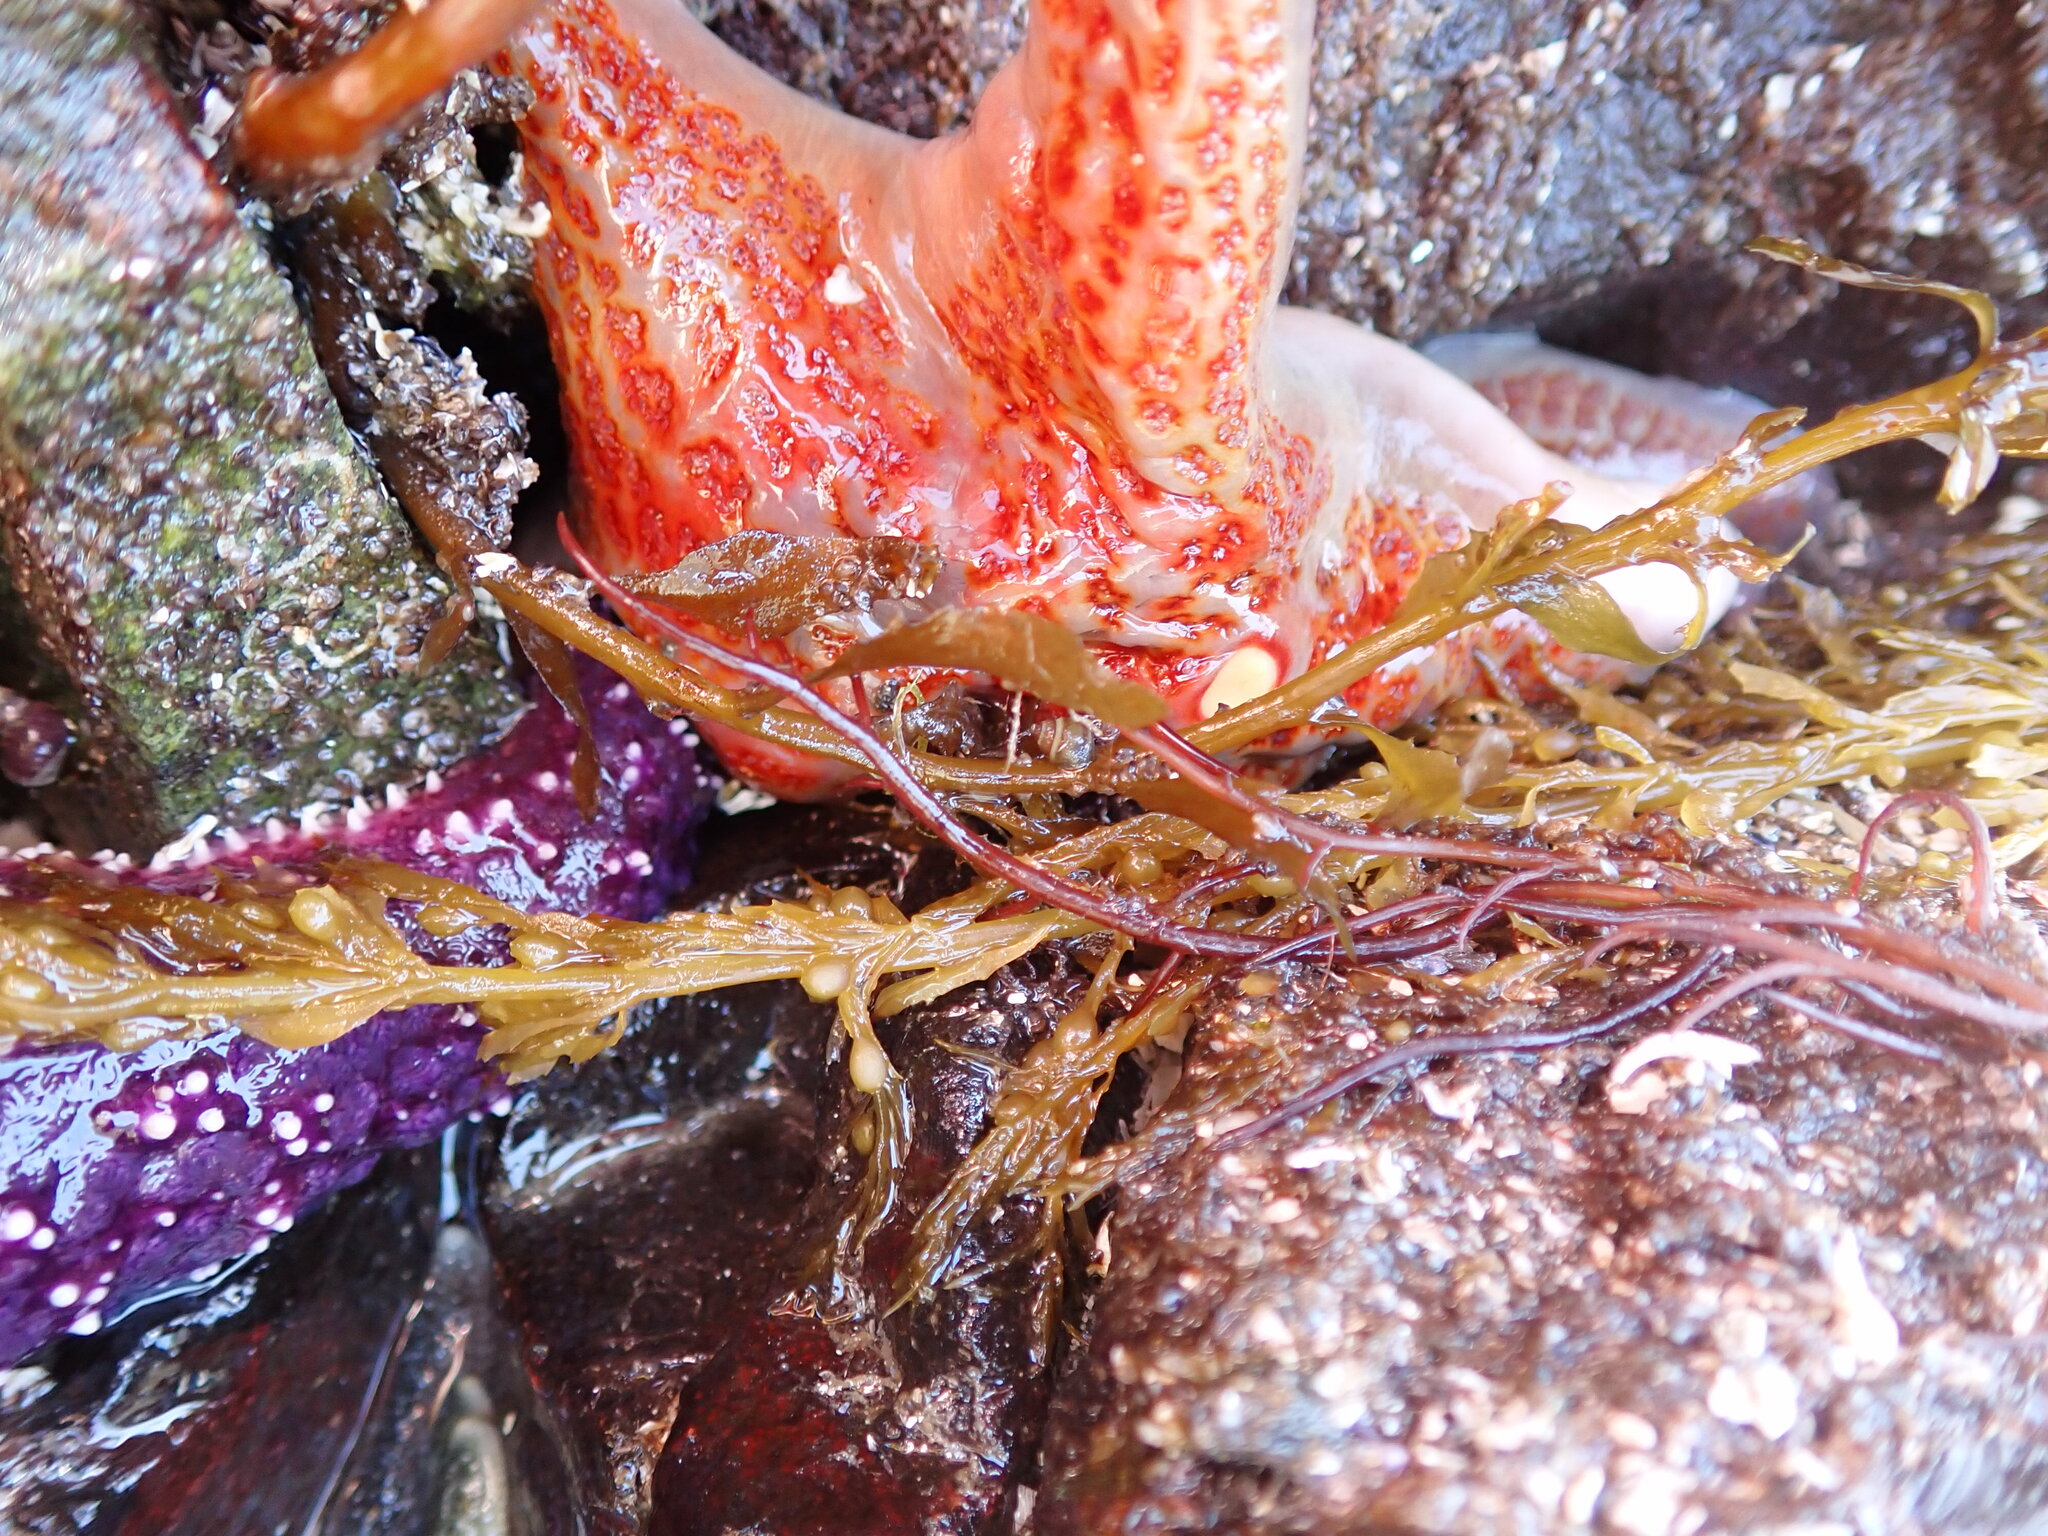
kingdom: Animalia
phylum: Echinodermata
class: Asteroidea
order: Valvatida
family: Asteropseidae
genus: Dermasterias
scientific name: Dermasterias imbricata
